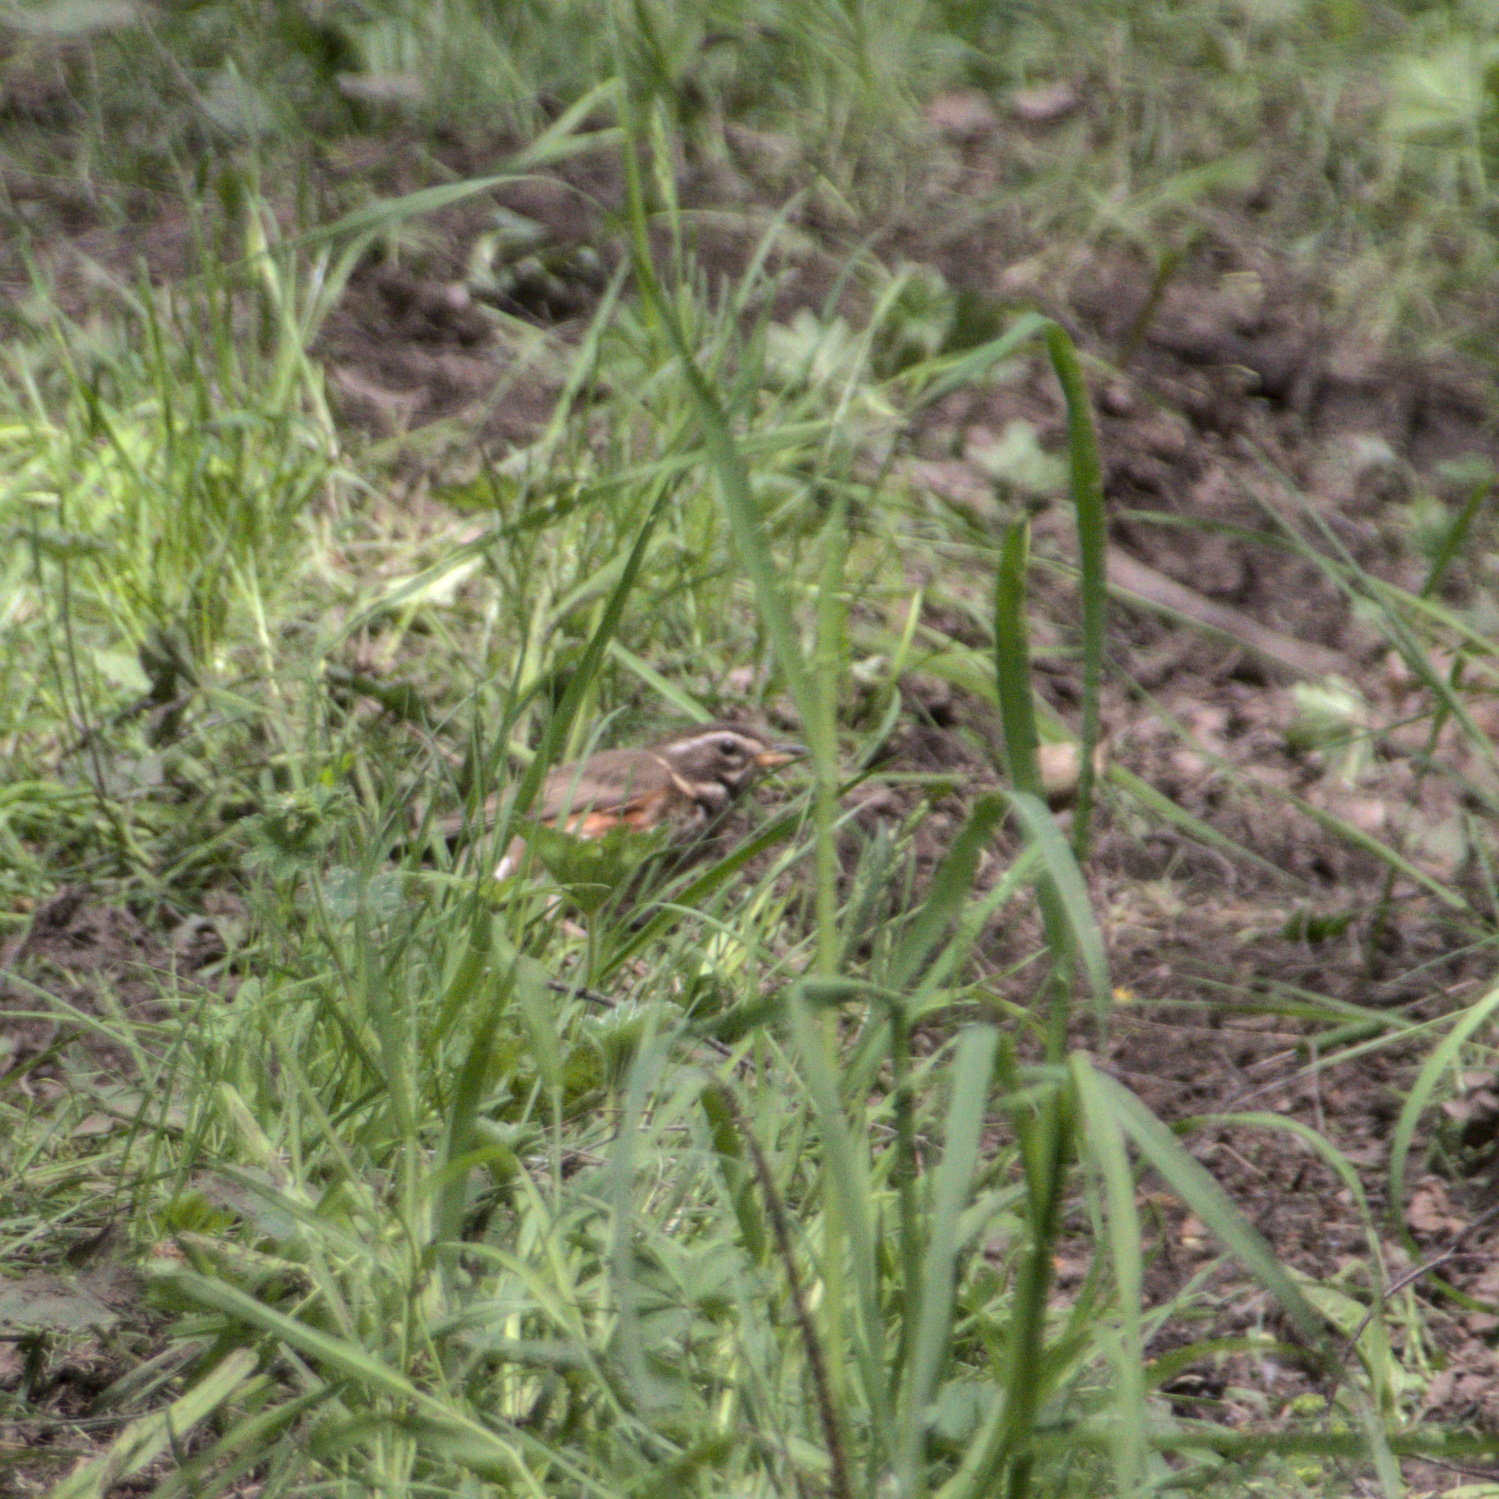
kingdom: Animalia
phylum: Chordata
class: Aves
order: Passeriformes
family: Turdidae
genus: Turdus
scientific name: Turdus iliacus
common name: Redwing
